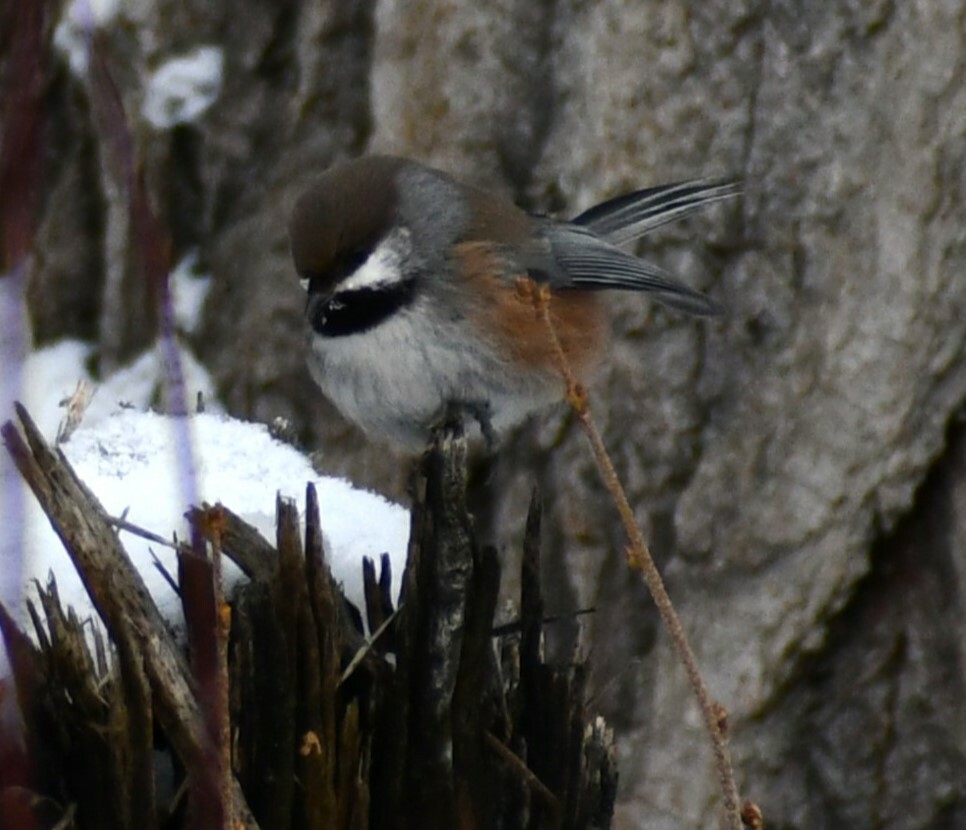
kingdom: Animalia
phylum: Chordata
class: Aves
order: Passeriformes
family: Paridae
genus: Poecile
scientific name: Poecile hudsonicus
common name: Boreal chickadee
